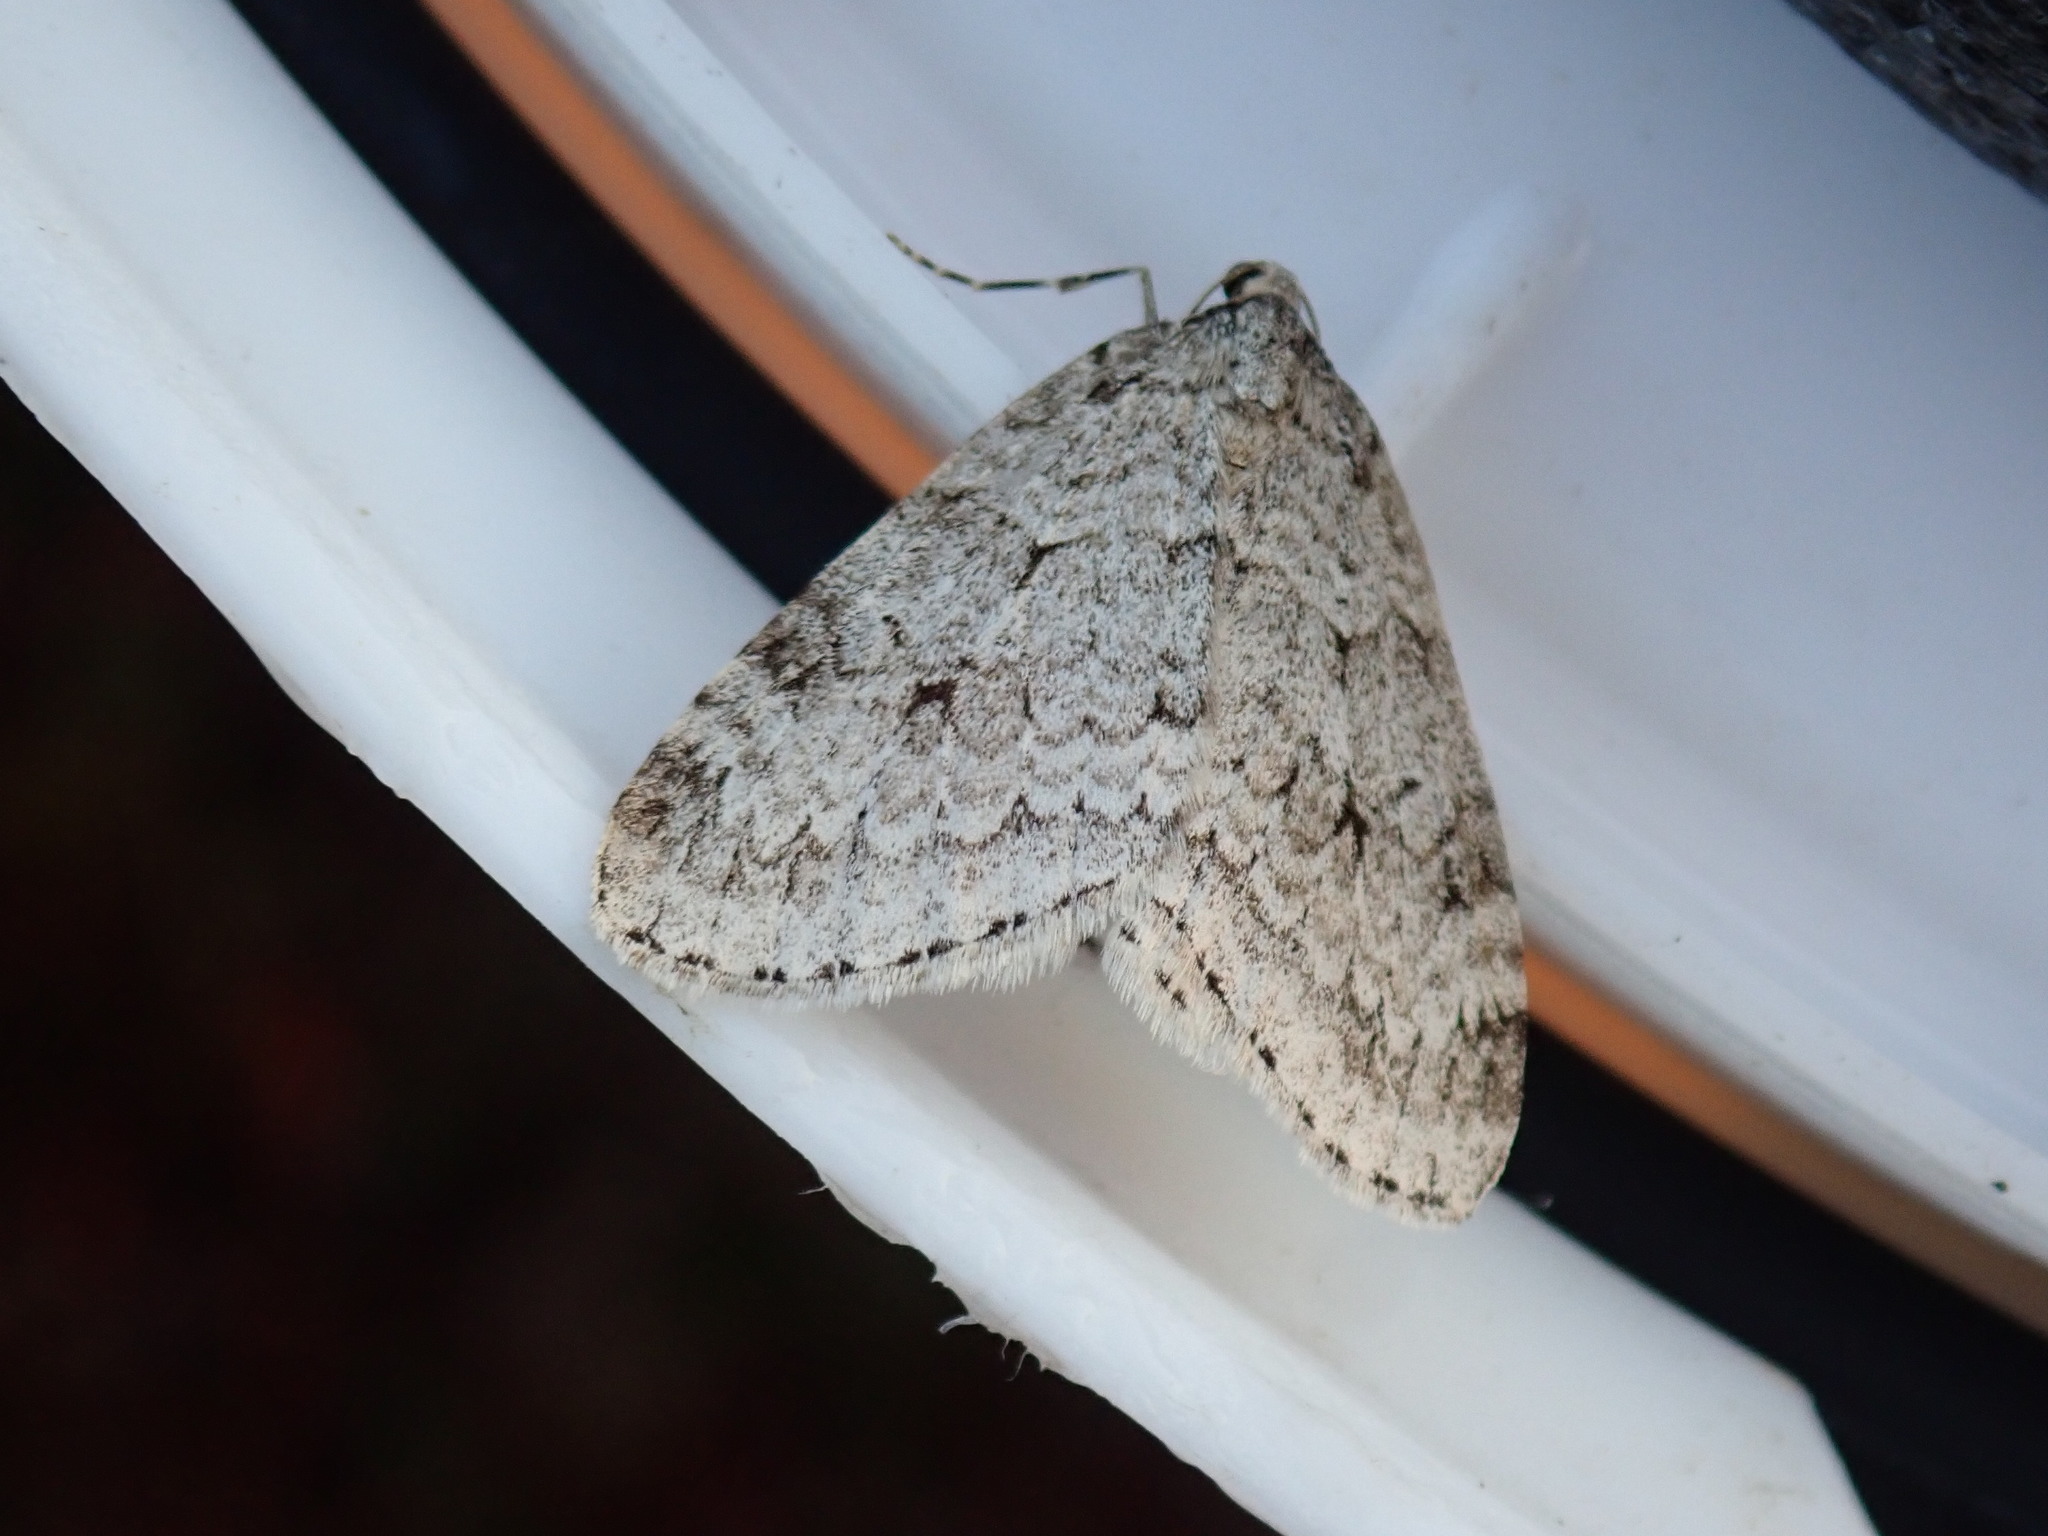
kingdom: Animalia
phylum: Arthropoda
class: Insecta
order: Lepidoptera
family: Geometridae
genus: Epirrita
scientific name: Epirrita autumnata
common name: Autumnal moth
